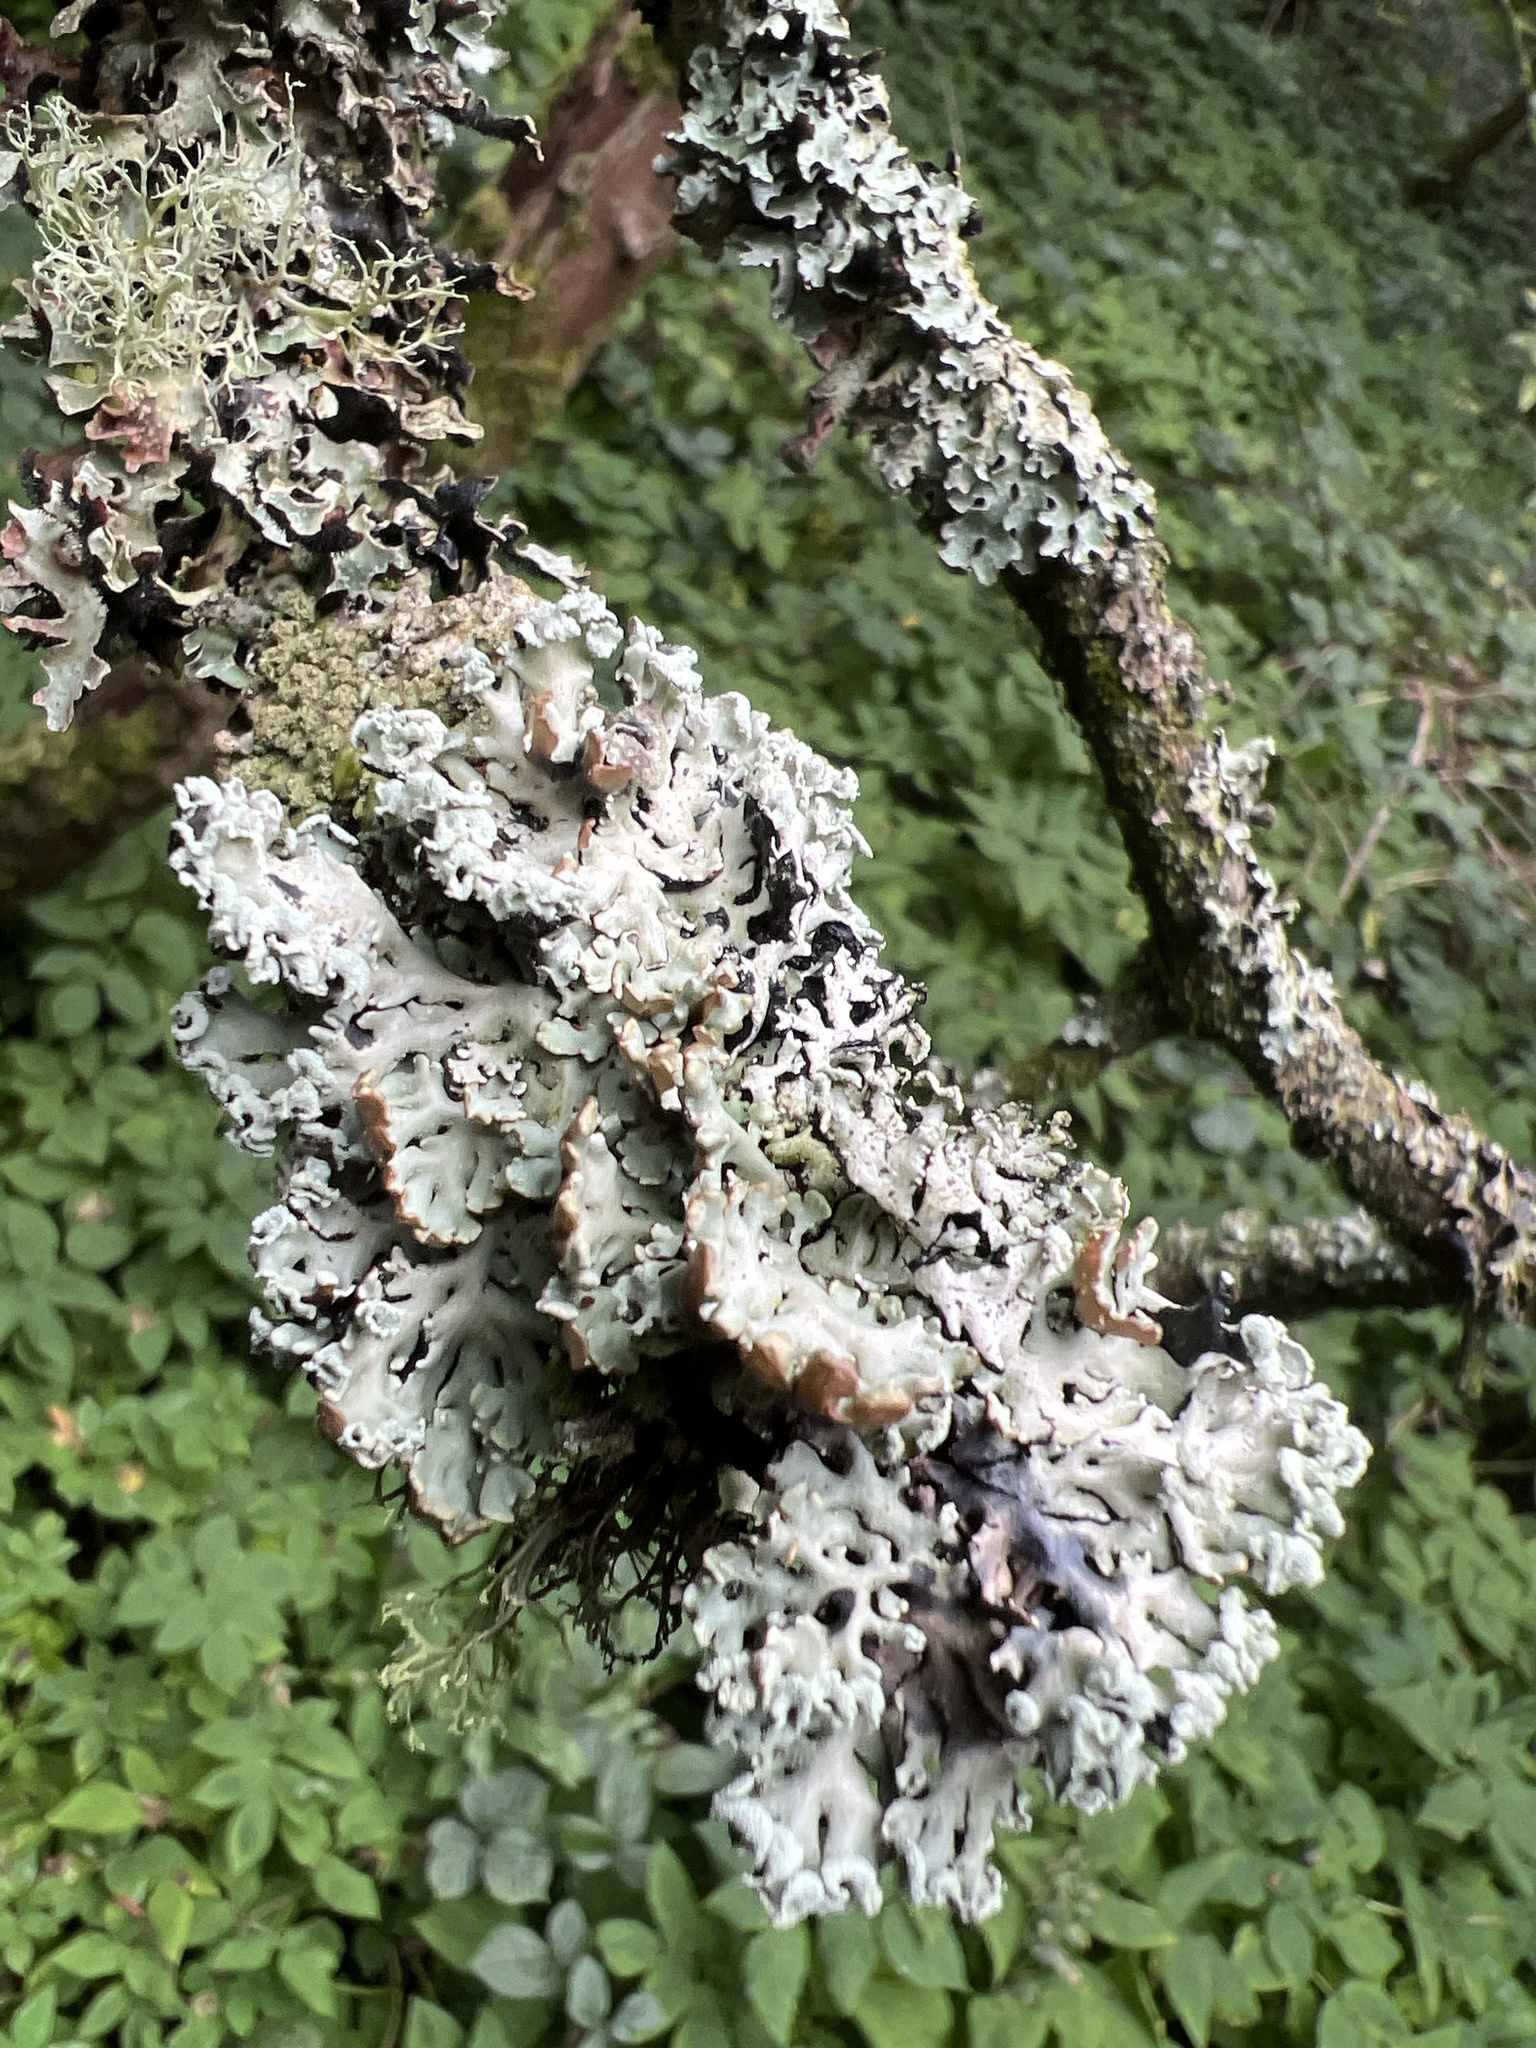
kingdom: Fungi
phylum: Ascomycota
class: Lecanoromycetes
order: Lecanorales
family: Parmeliaceae
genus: Hypogymnia
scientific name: Hypogymnia physodes
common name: Dark crottle
